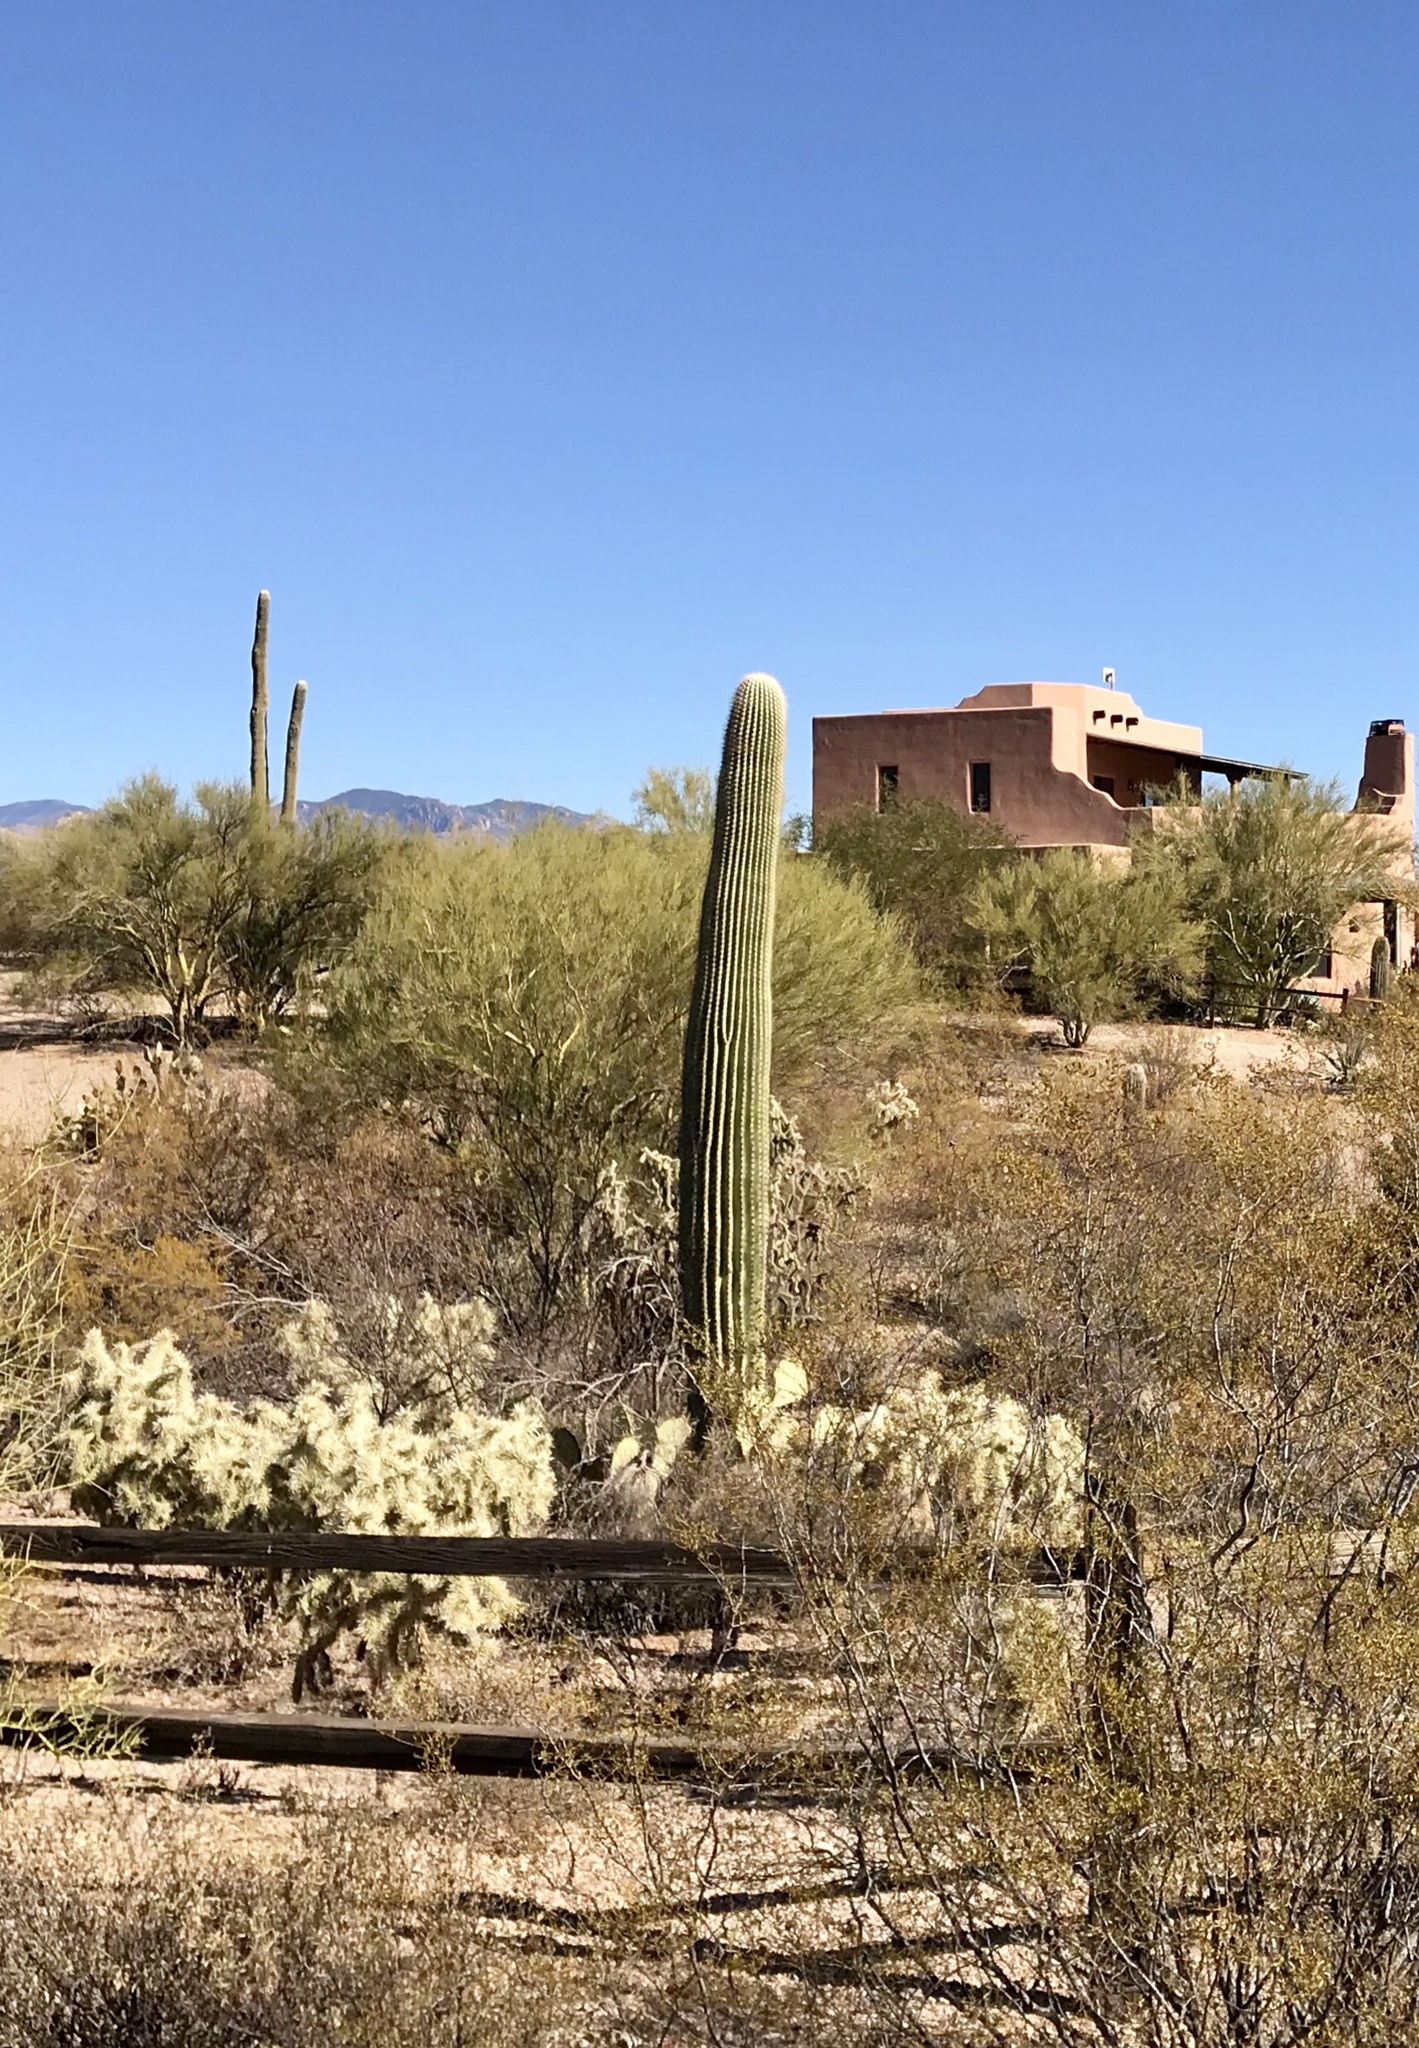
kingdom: Plantae
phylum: Tracheophyta
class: Magnoliopsida
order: Caryophyllales
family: Cactaceae
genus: Carnegiea
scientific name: Carnegiea gigantea
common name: Saguaro
